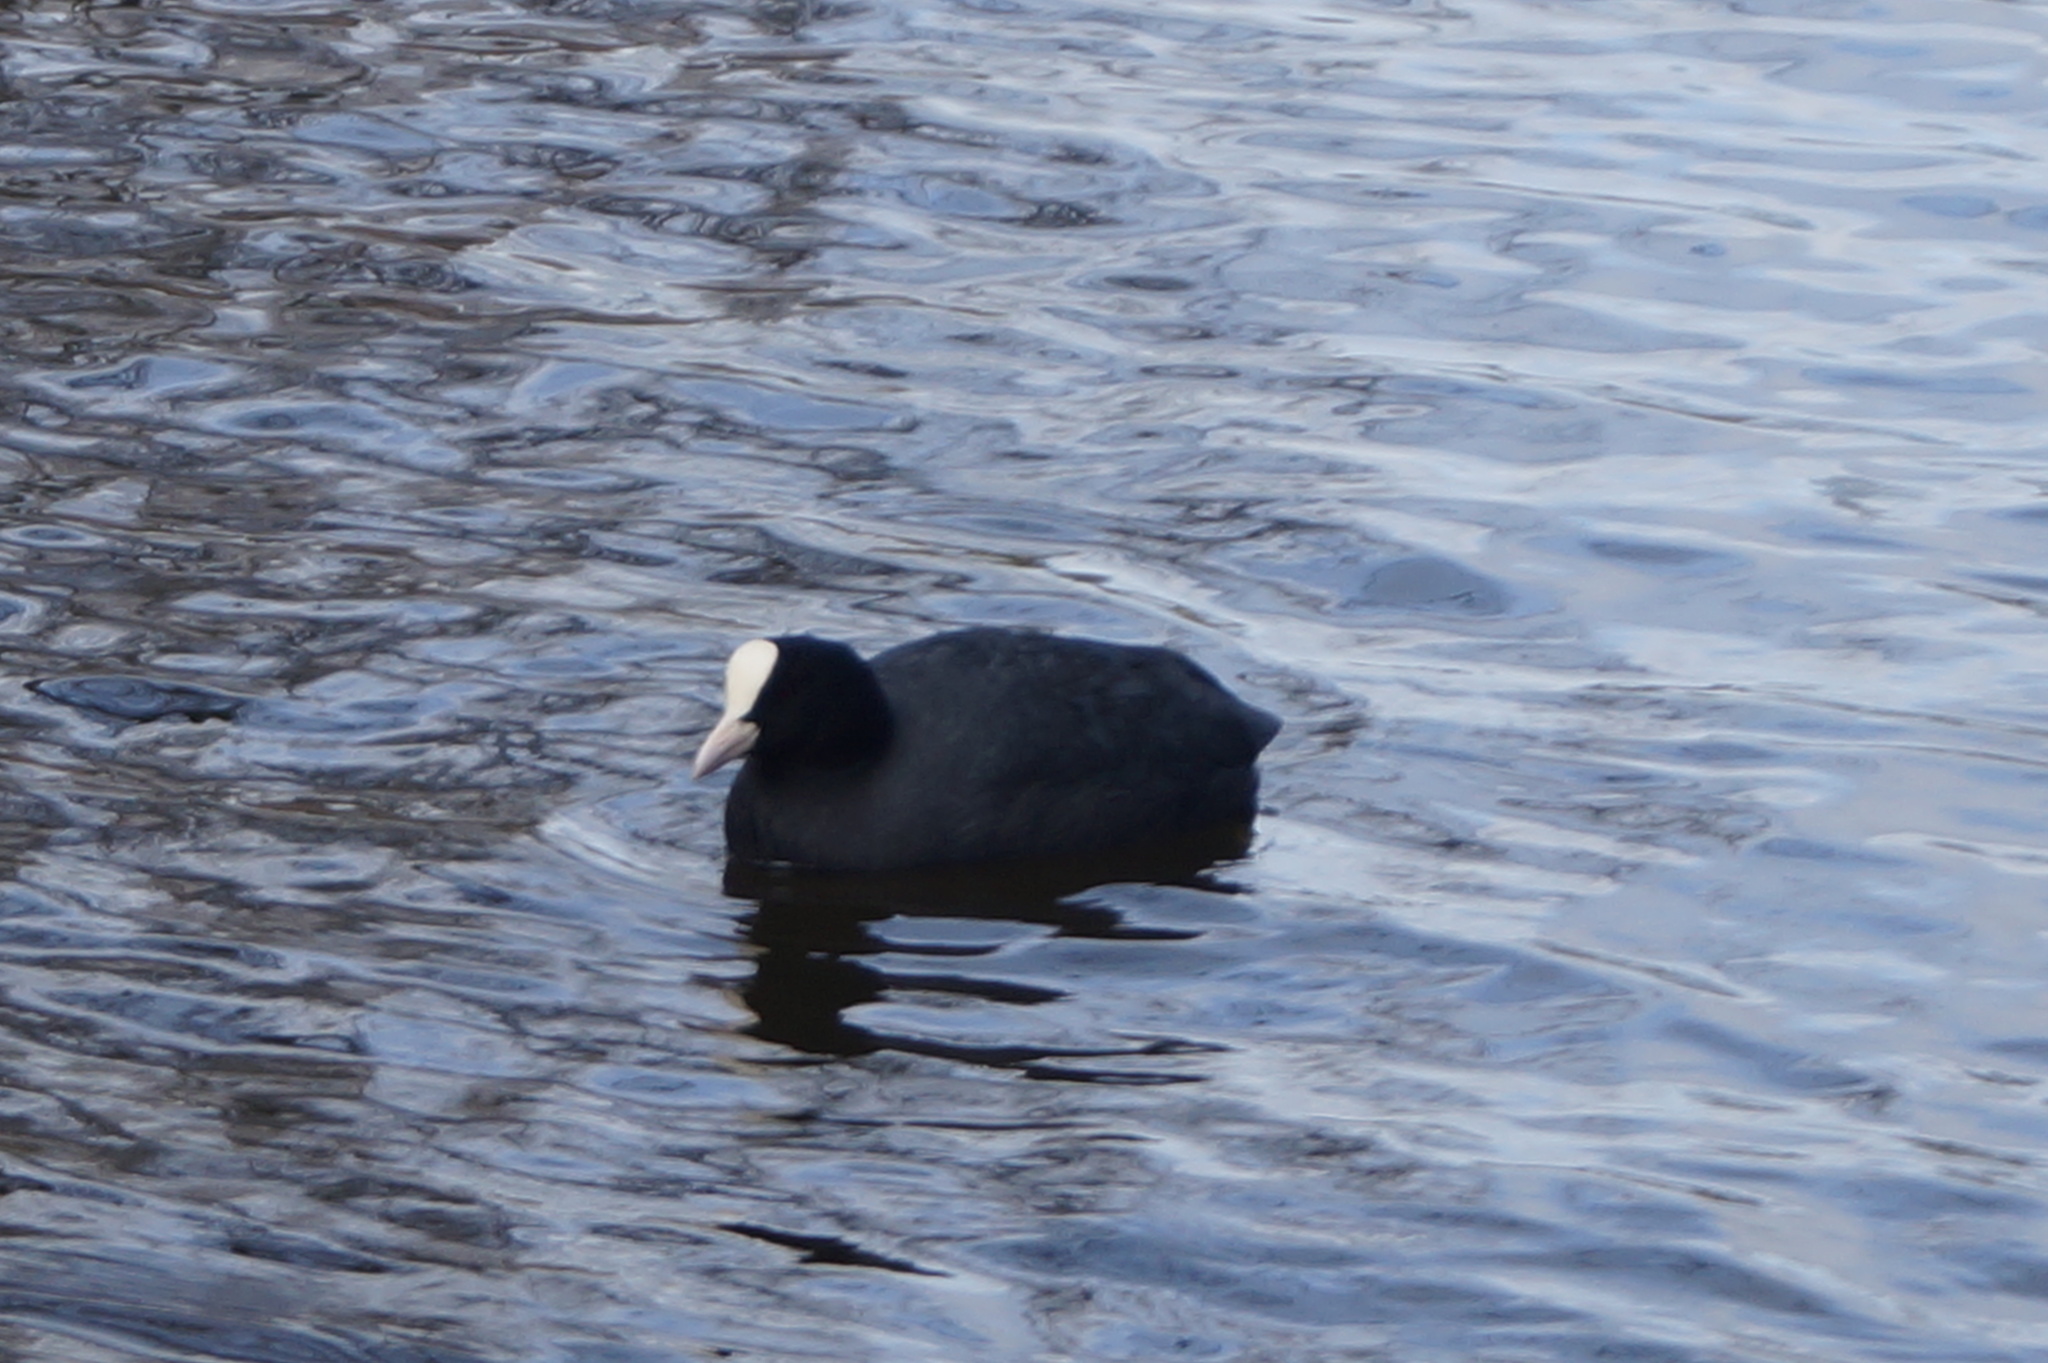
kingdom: Animalia
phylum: Chordata
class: Aves
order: Gruiformes
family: Rallidae
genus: Fulica
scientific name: Fulica atra
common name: Eurasian coot
